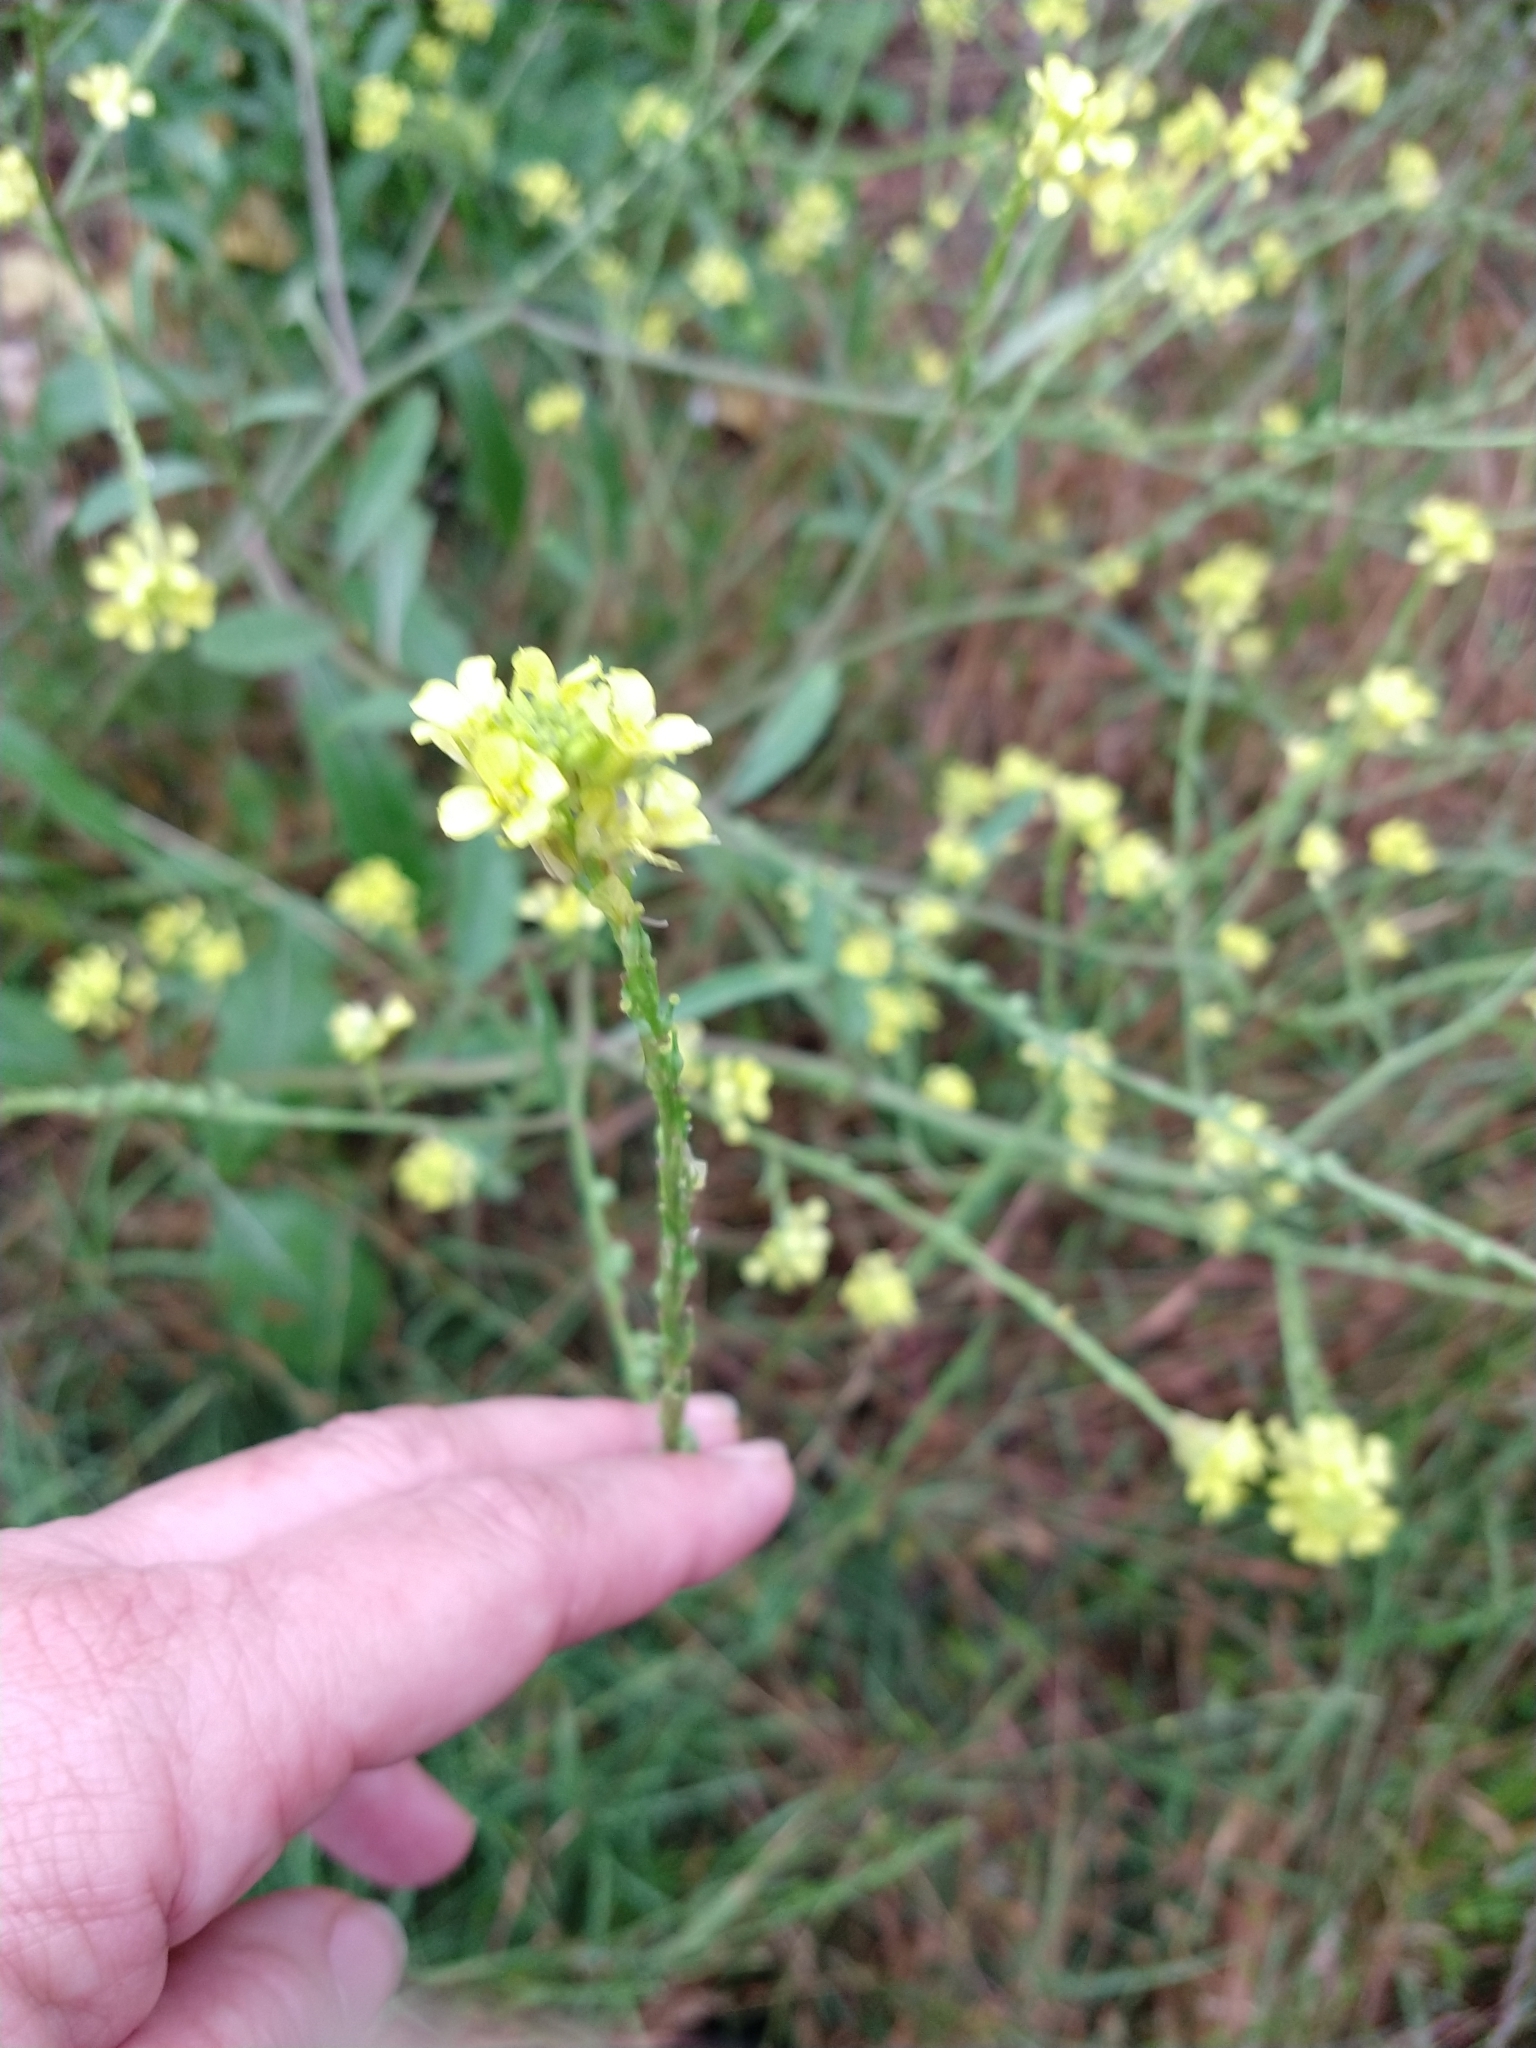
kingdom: Plantae
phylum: Tracheophyta
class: Magnoliopsida
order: Brassicales
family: Brassicaceae
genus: Rapistrum
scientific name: Rapistrum rugosum
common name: Annual bastardcabbage
